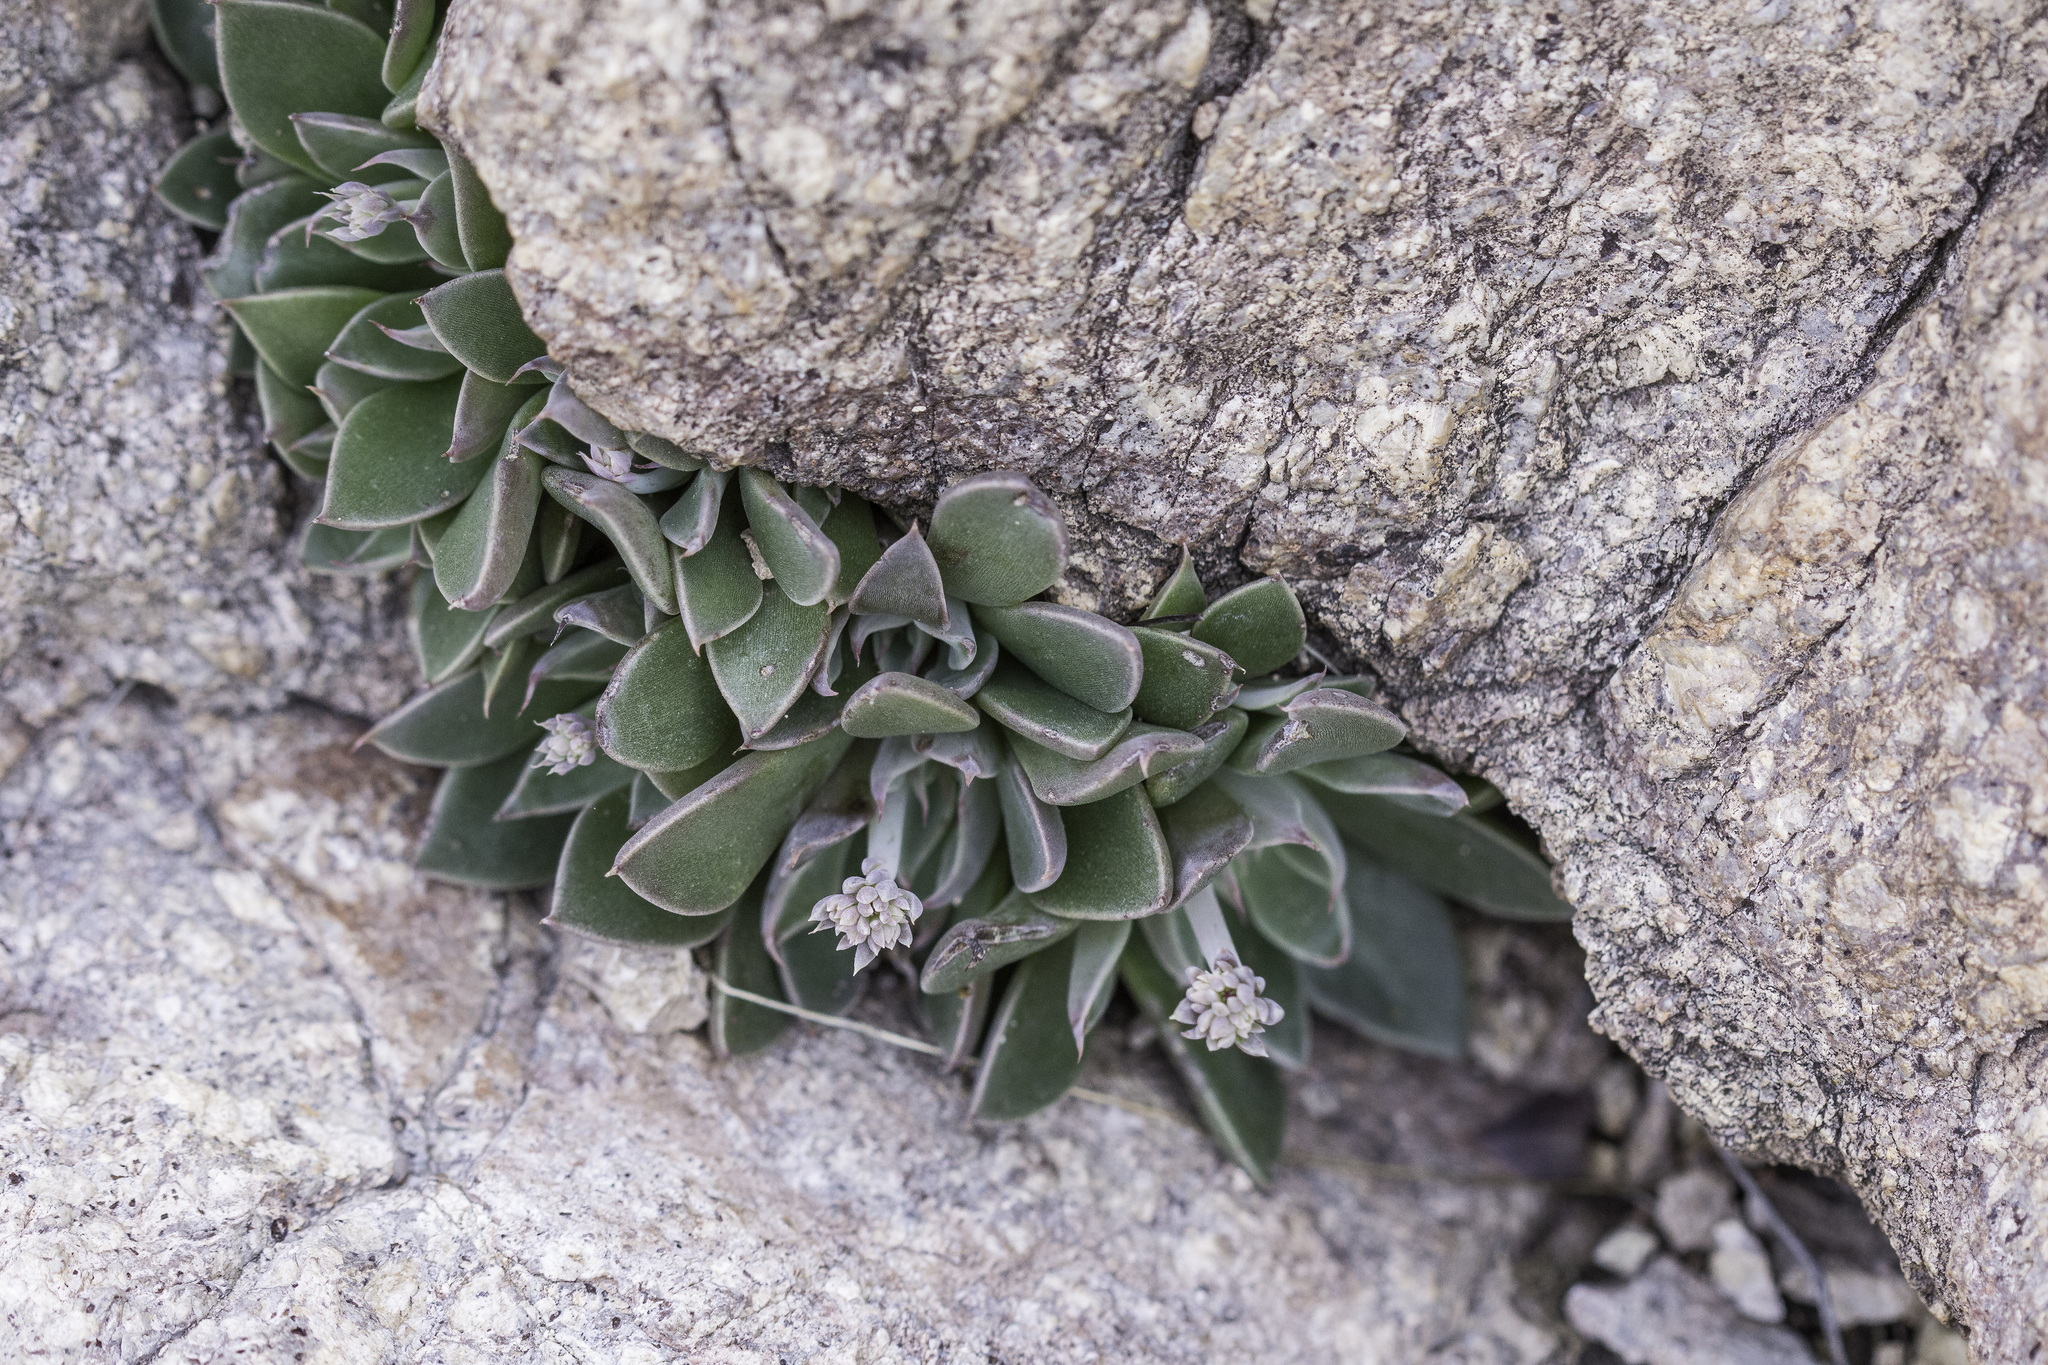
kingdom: Plantae
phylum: Tracheophyta
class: Magnoliopsida
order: Saxifragales
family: Crassulaceae
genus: Graptopetalum
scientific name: Graptopetalum rusbyi
